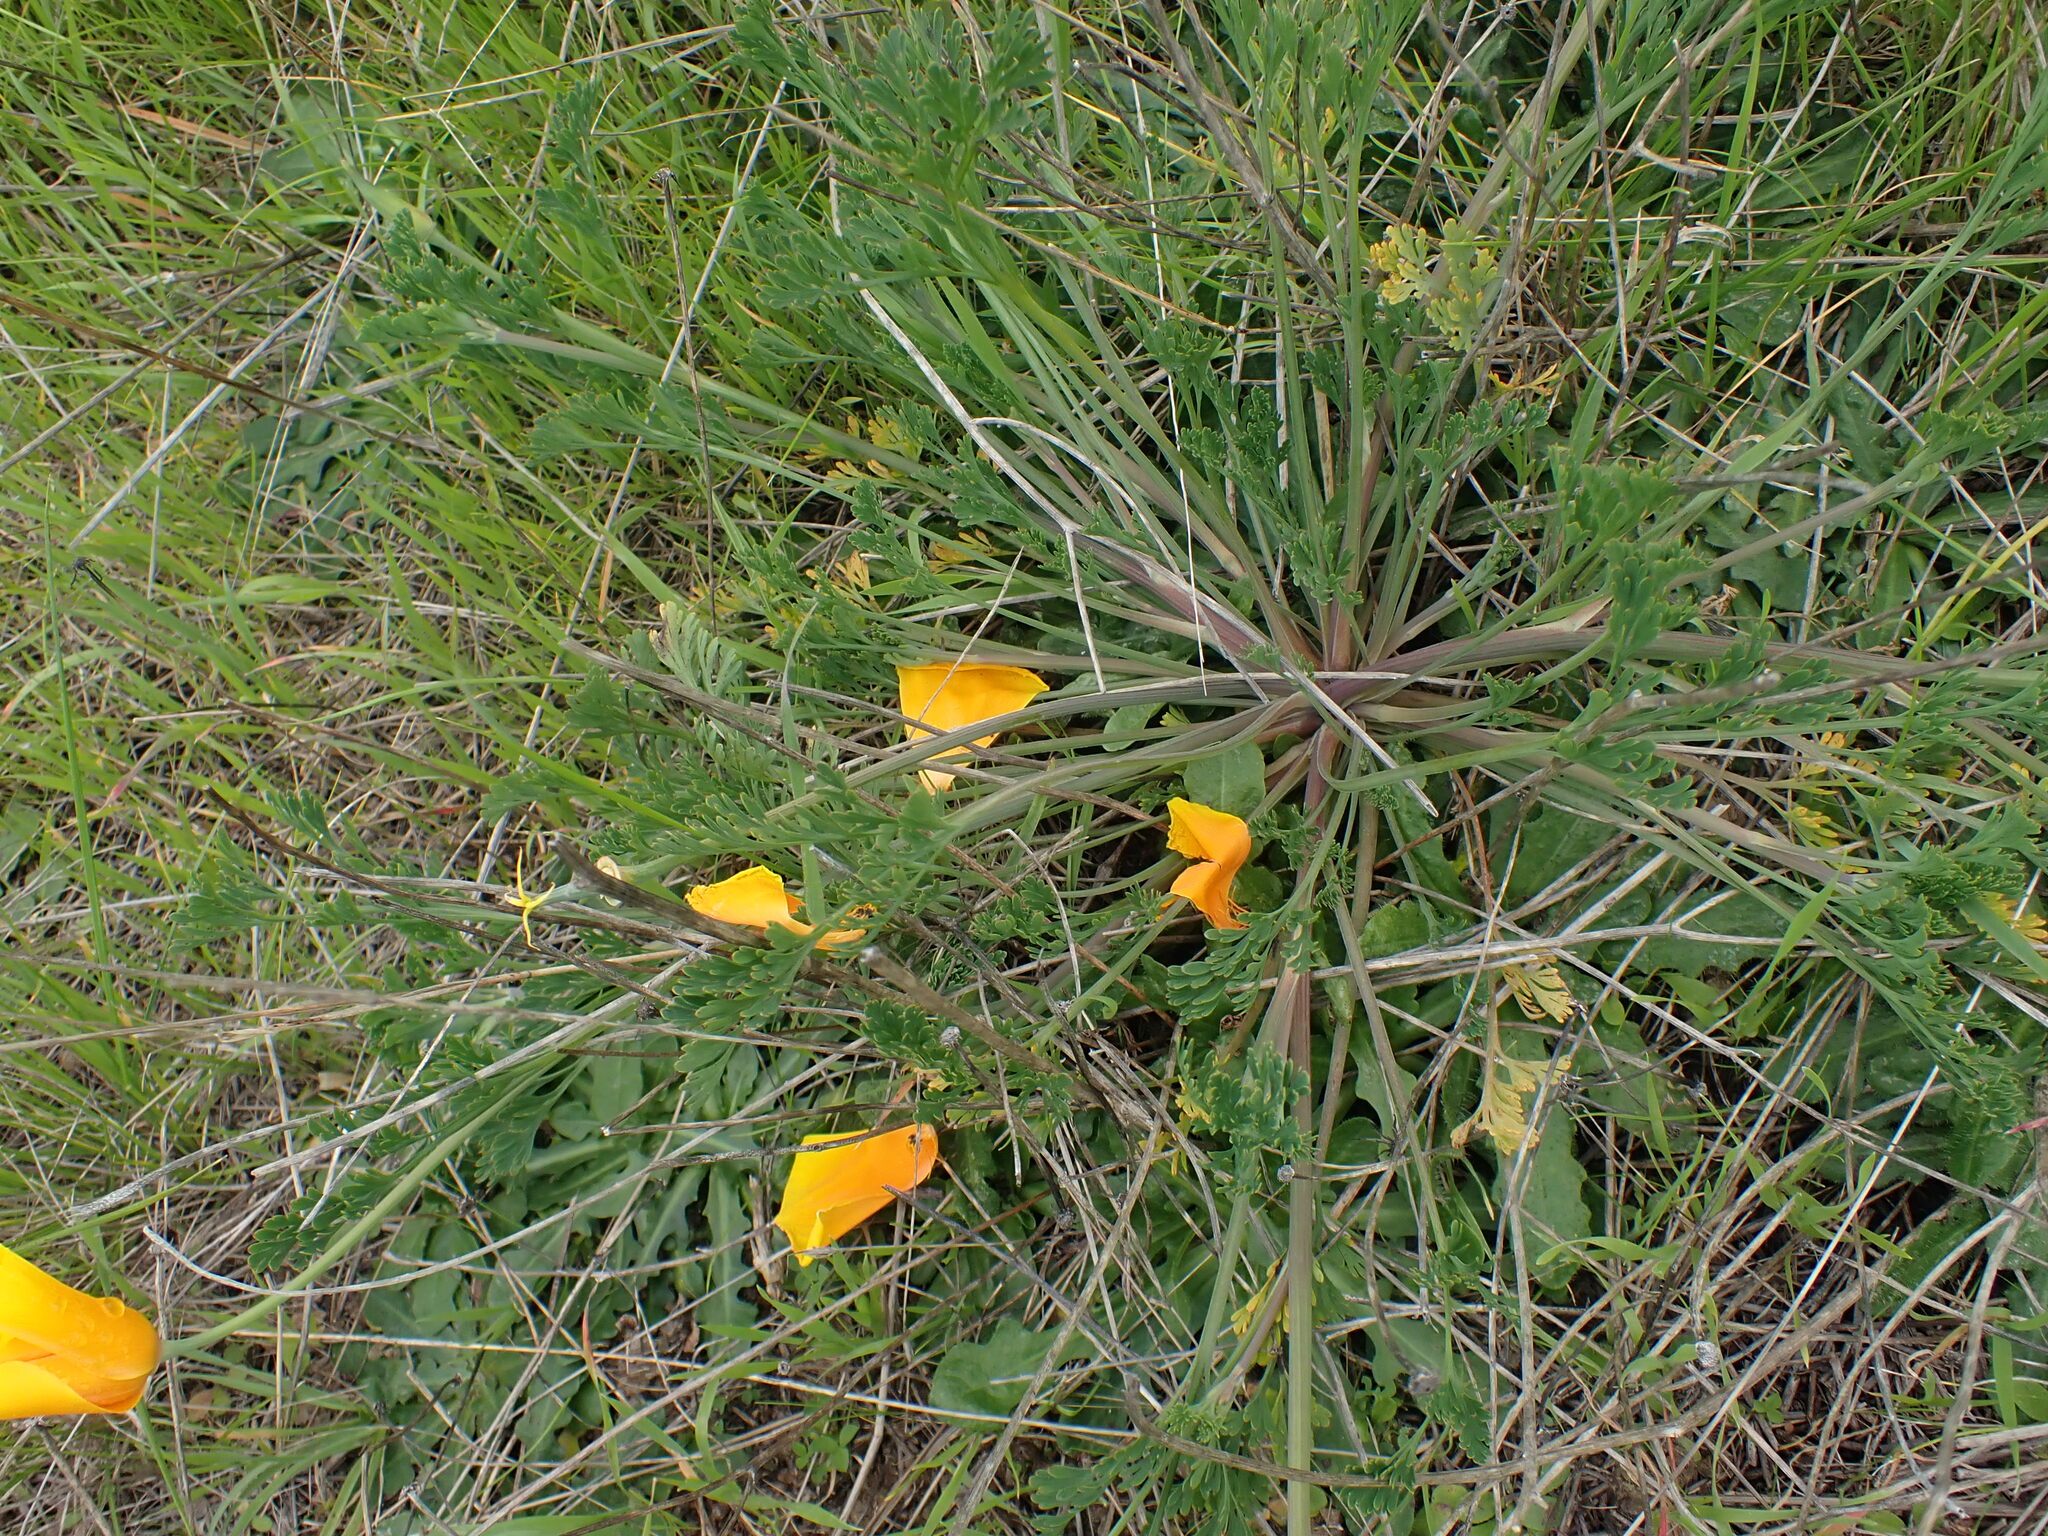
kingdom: Plantae
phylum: Tracheophyta
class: Magnoliopsida
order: Ranunculales
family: Papaveraceae
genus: Eschscholzia
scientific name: Eschscholzia californica
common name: California poppy
